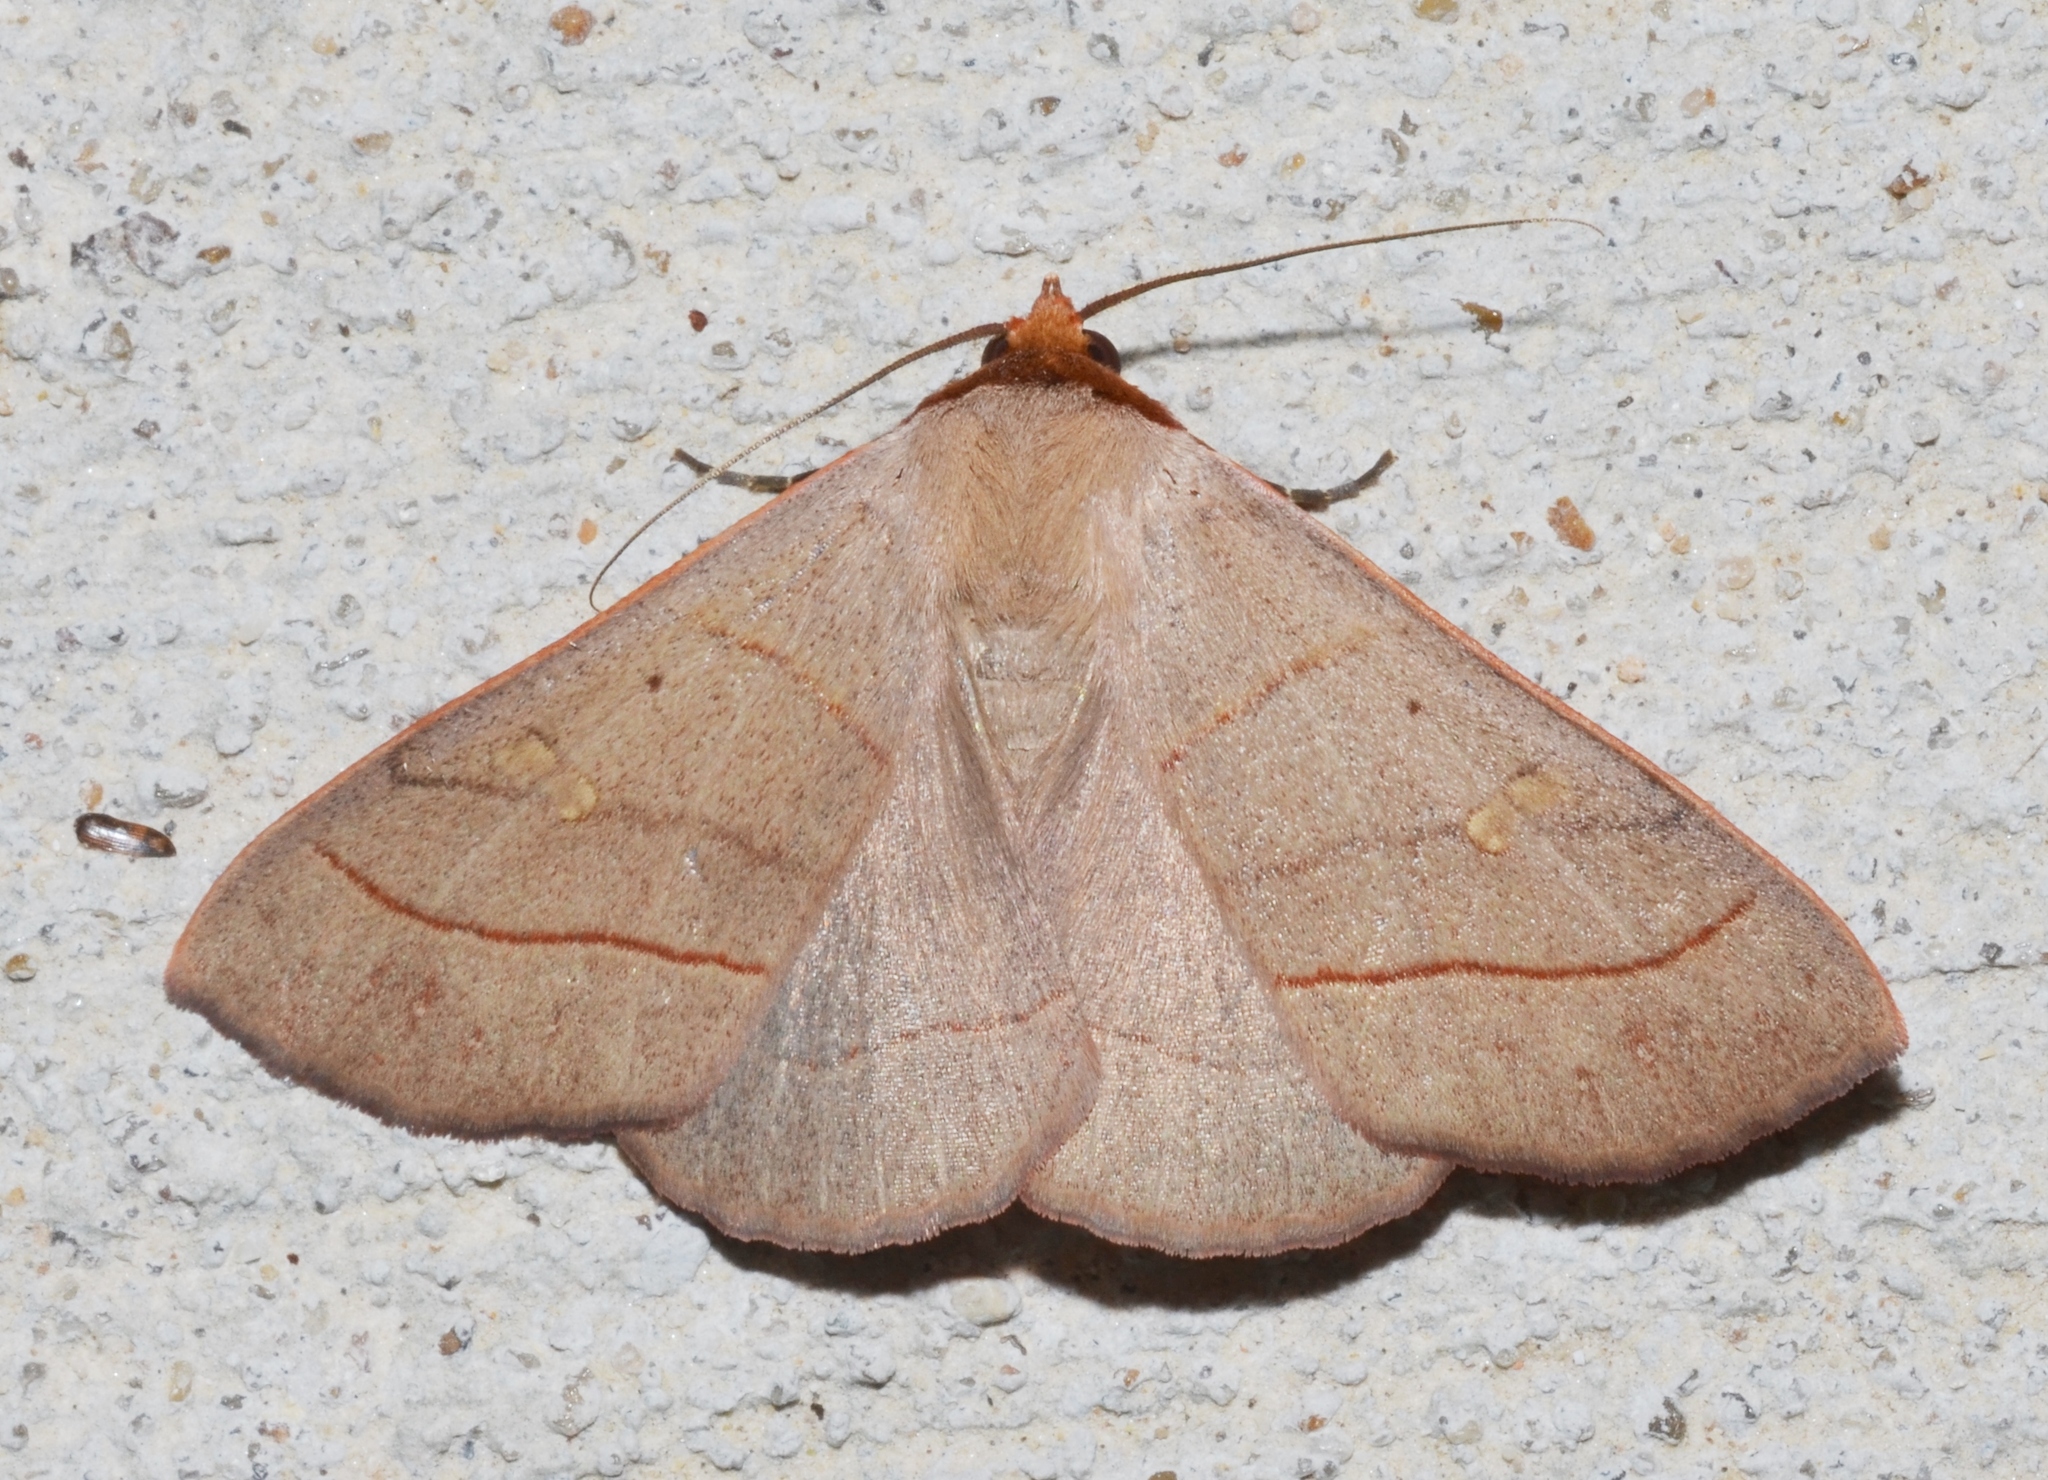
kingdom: Animalia
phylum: Arthropoda
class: Insecta
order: Lepidoptera
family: Erebidae
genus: Panopoda
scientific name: Panopoda rufimargo
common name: Red-lined panopoda moth
